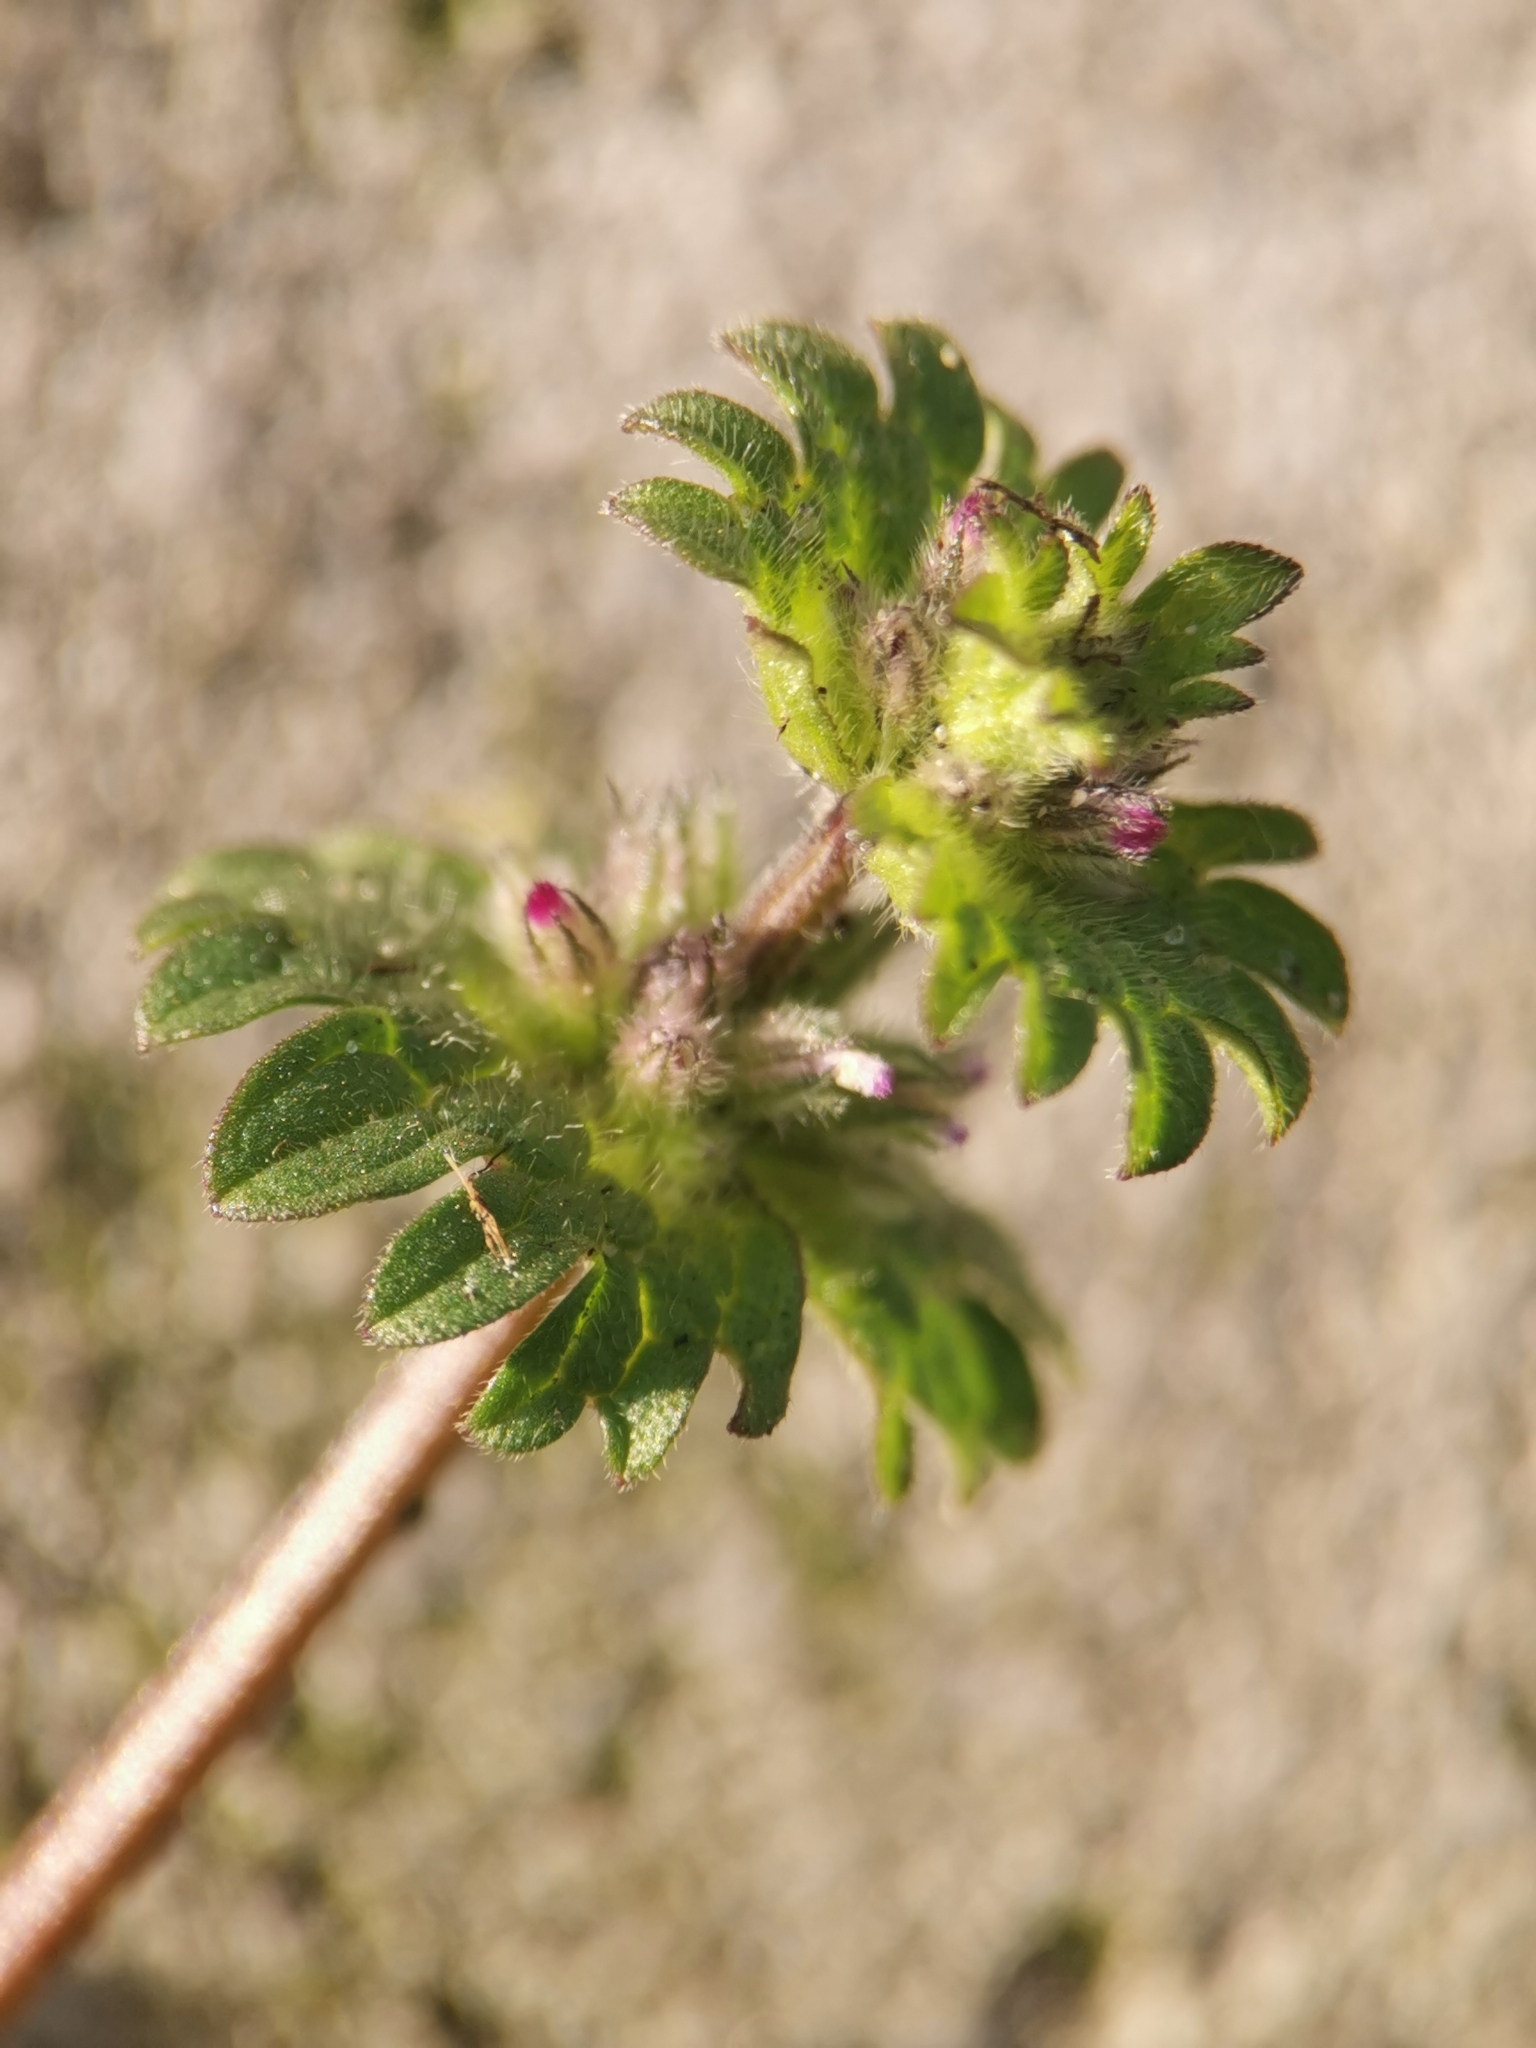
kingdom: Plantae
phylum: Tracheophyta
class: Magnoliopsida
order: Lamiales
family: Lamiaceae
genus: Lamium
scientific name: Lamium amplexicaule
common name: Henbit dead-nettle
